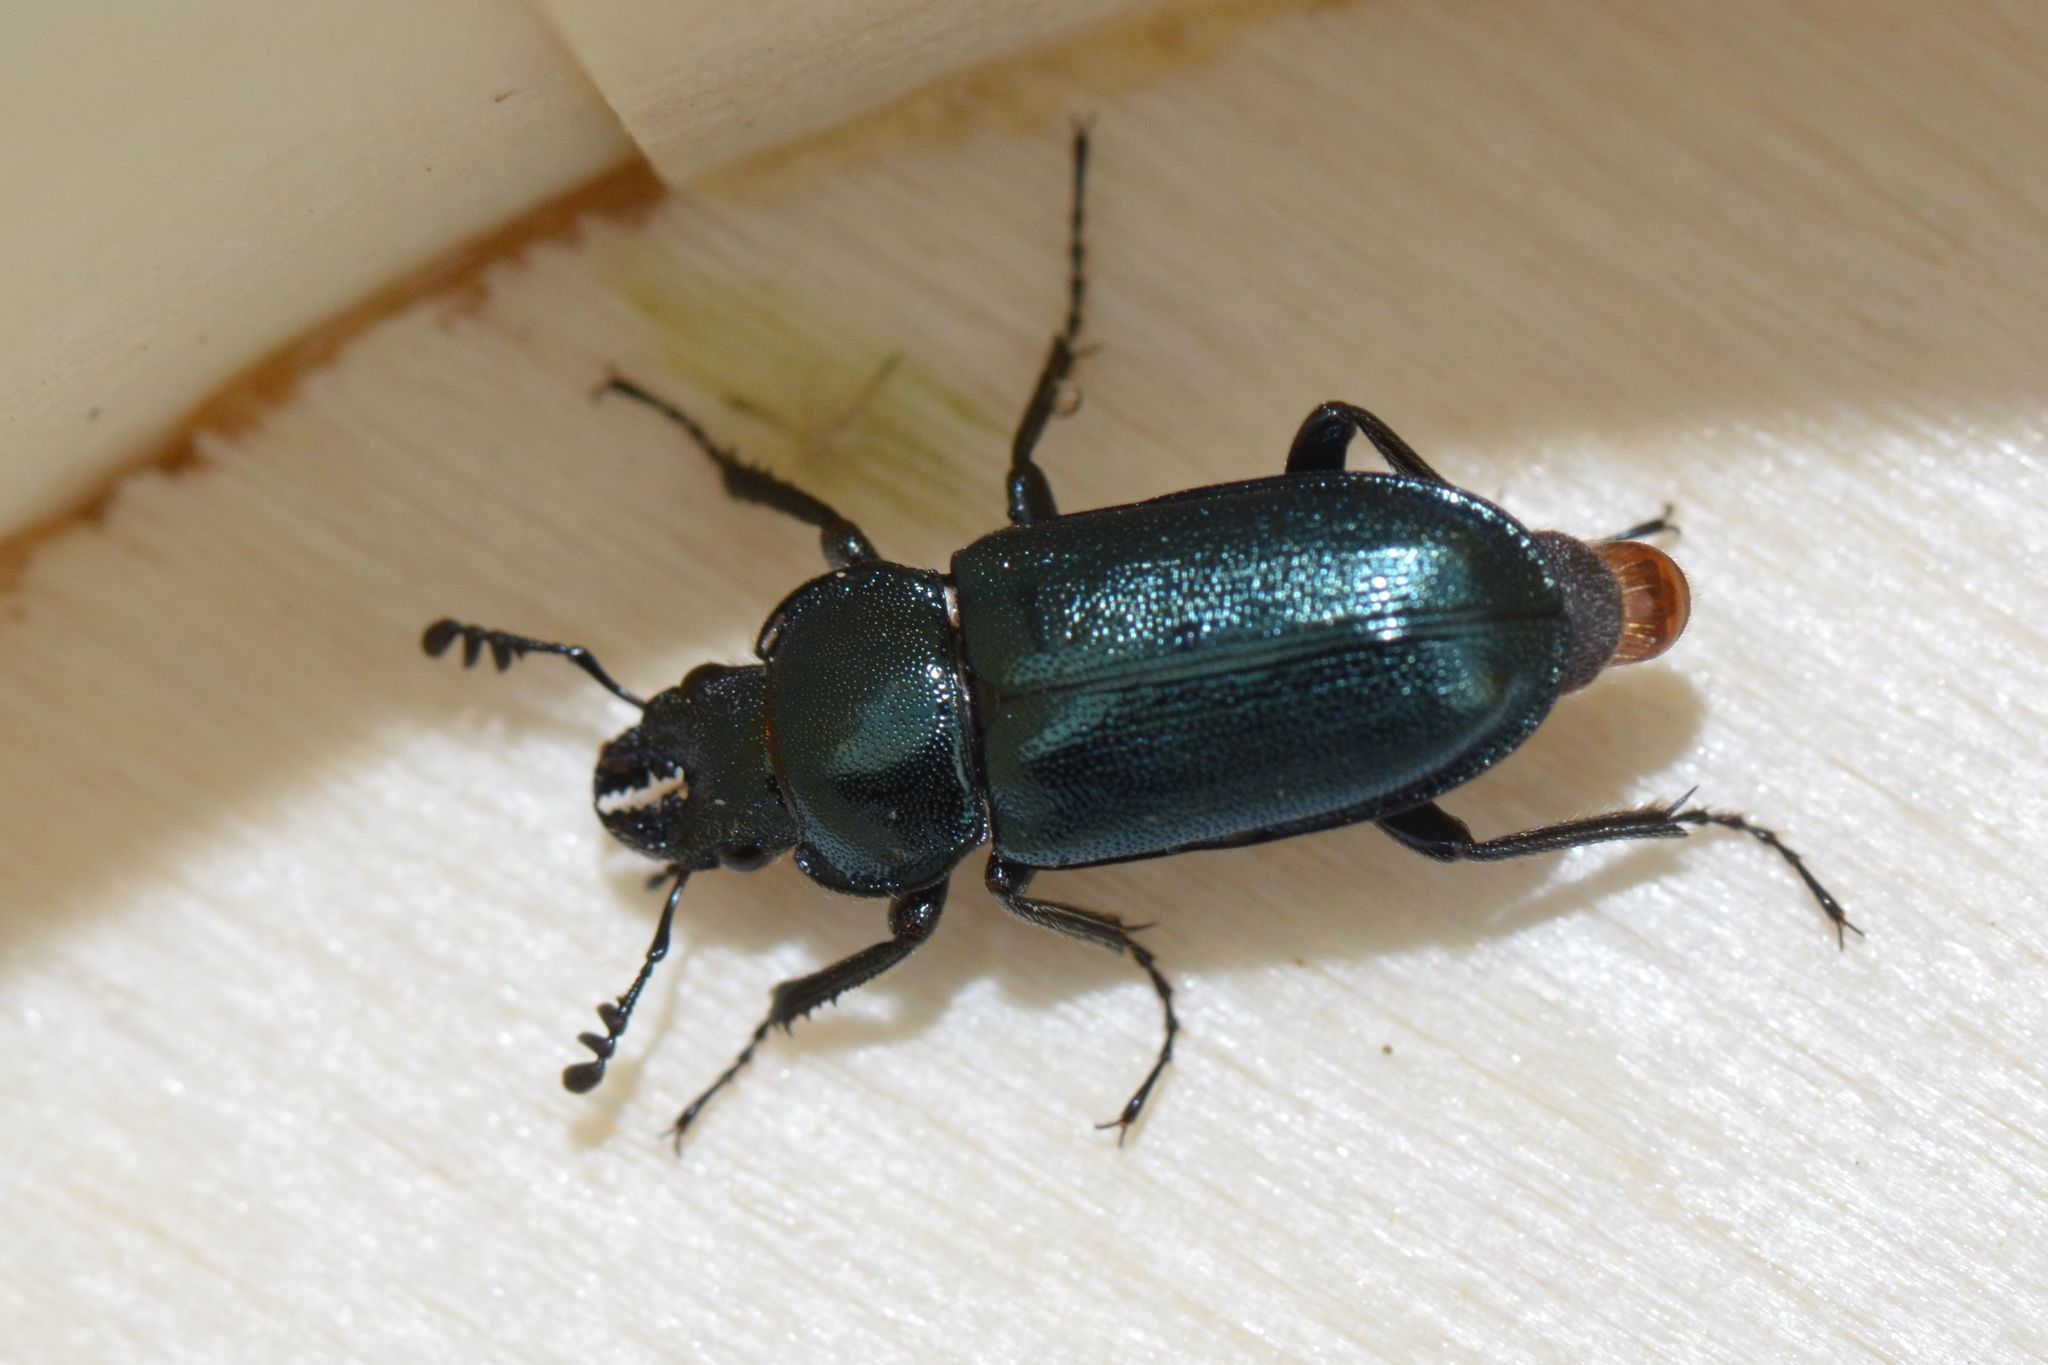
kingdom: Animalia
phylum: Arthropoda
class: Insecta
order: Coleoptera
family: Lucanidae
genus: Platycerus
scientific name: Platycerus caraboides
